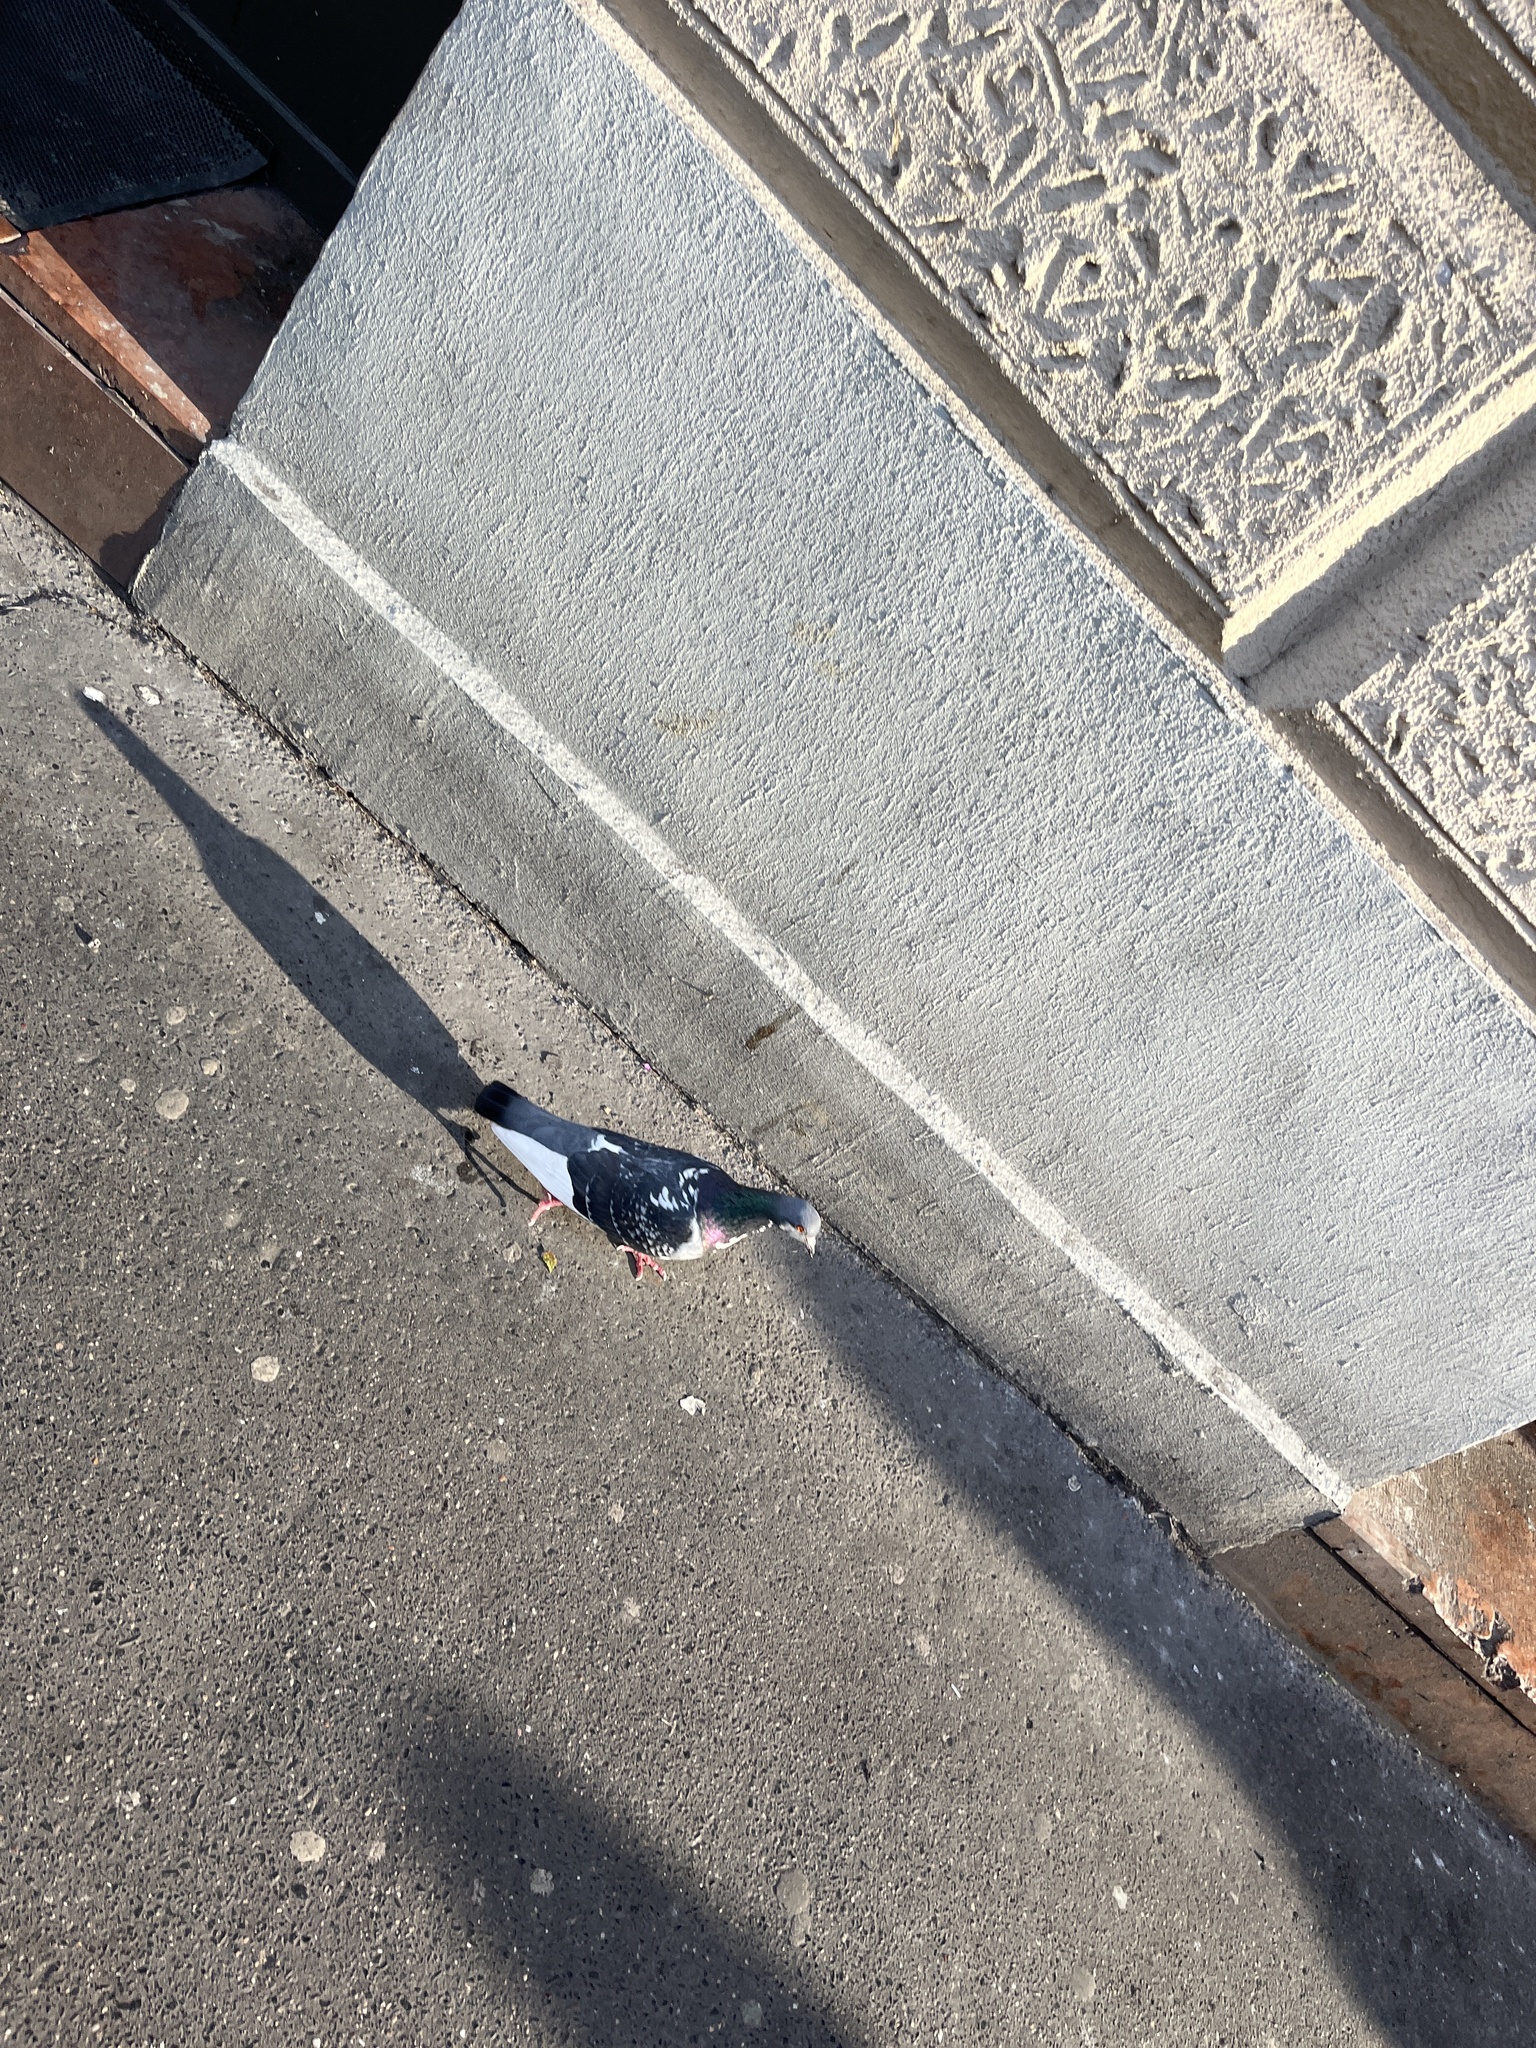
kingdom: Animalia
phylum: Chordata
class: Aves
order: Columbiformes
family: Columbidae
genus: Columba
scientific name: Columba livia
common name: Rock pigeon
